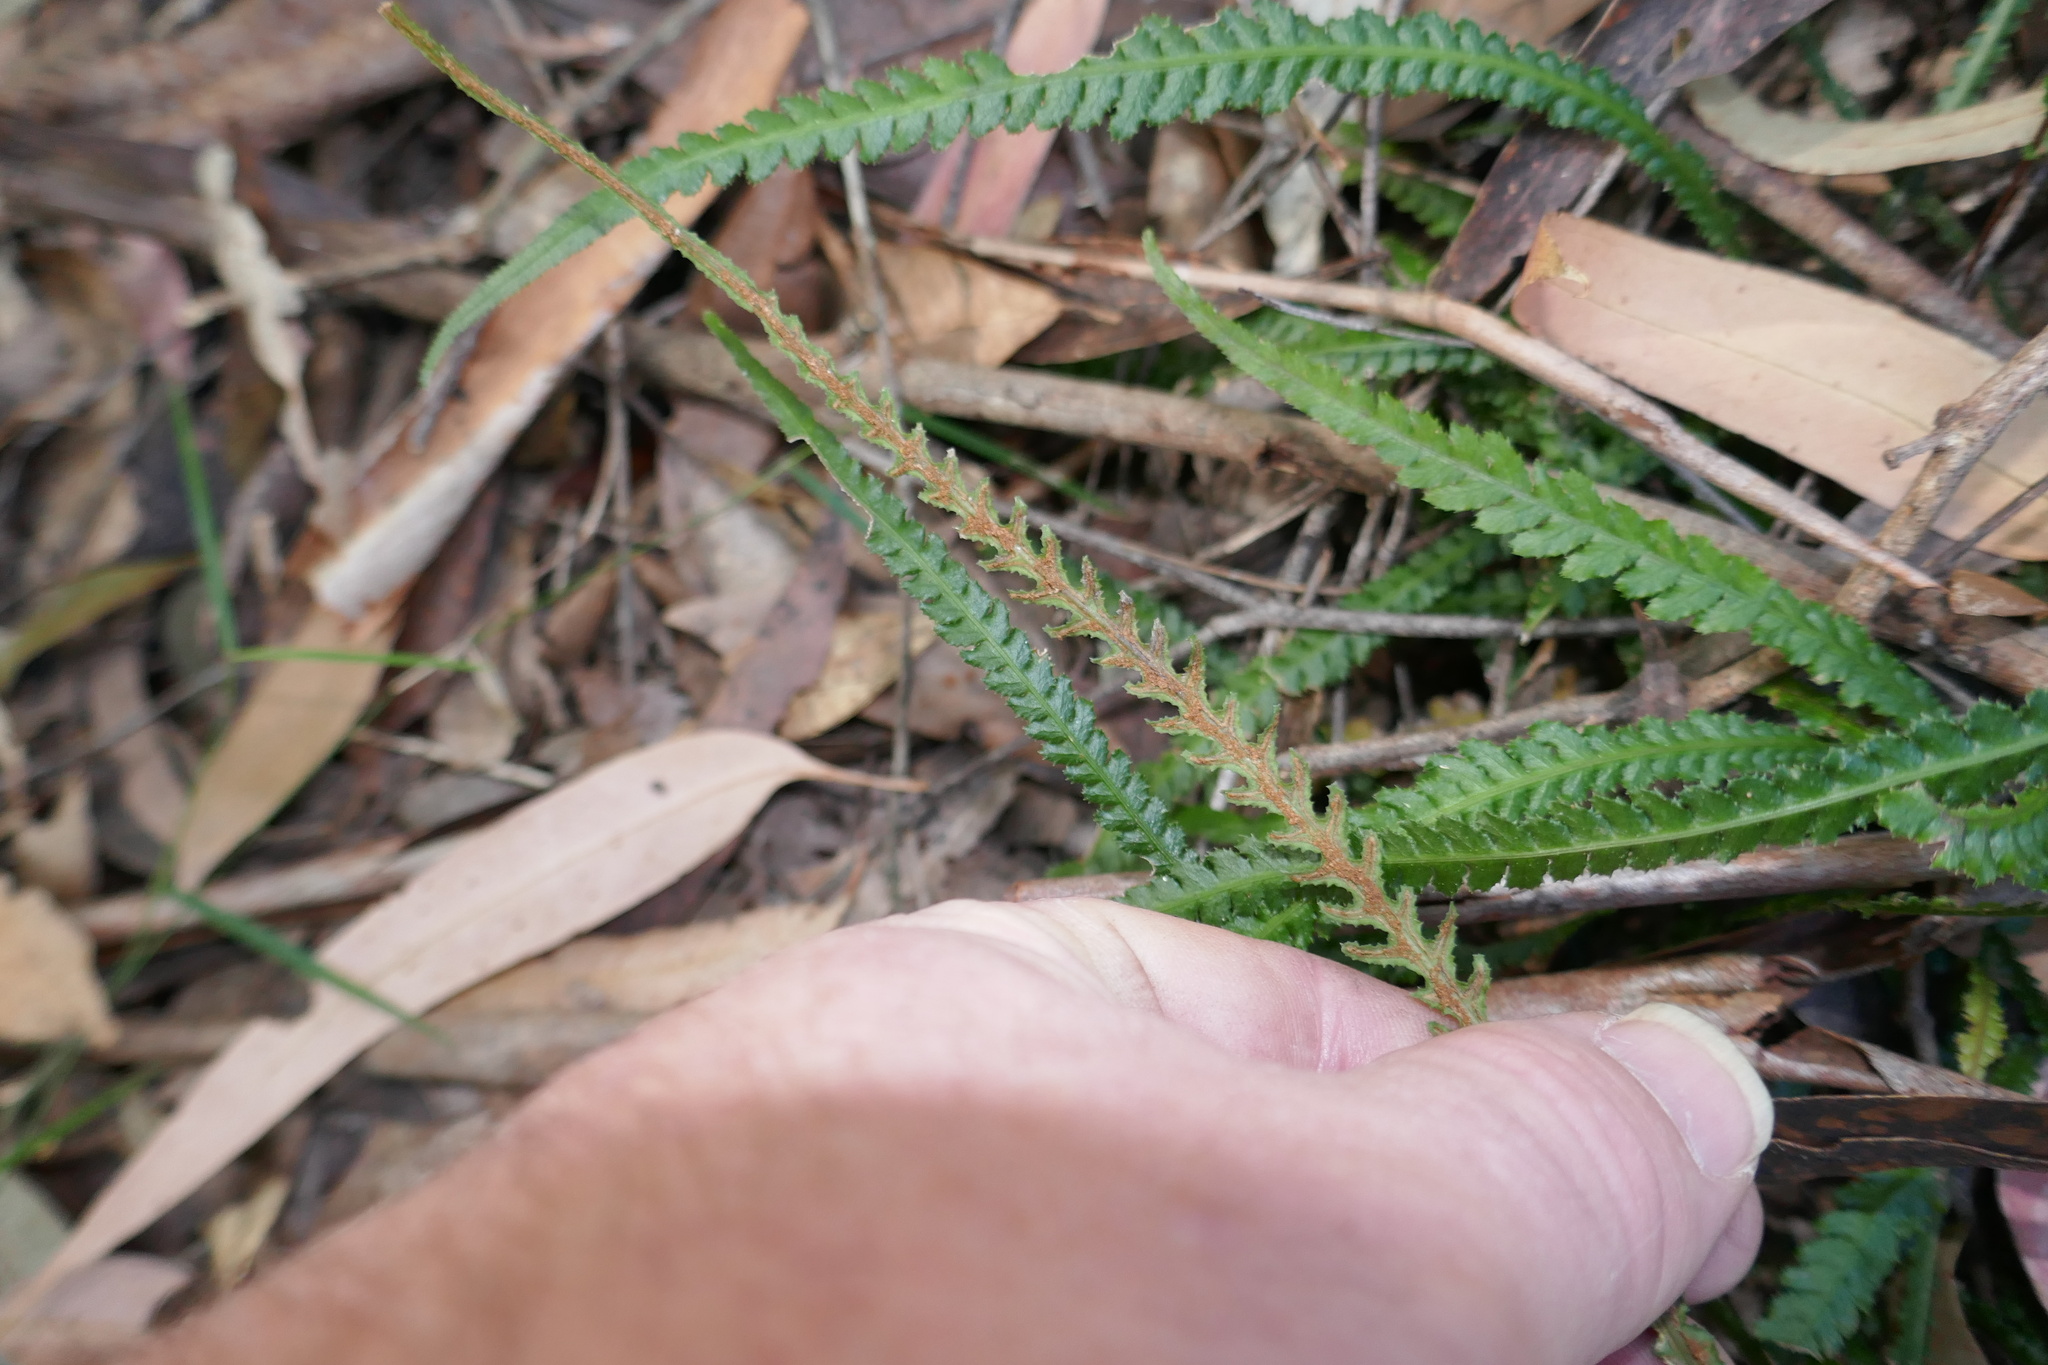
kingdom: Plantae
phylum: Tracheophyta
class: Polypodiopsida
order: Polypodiales
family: Blechnaceae
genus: Doodia
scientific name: Doodia heterophylla
